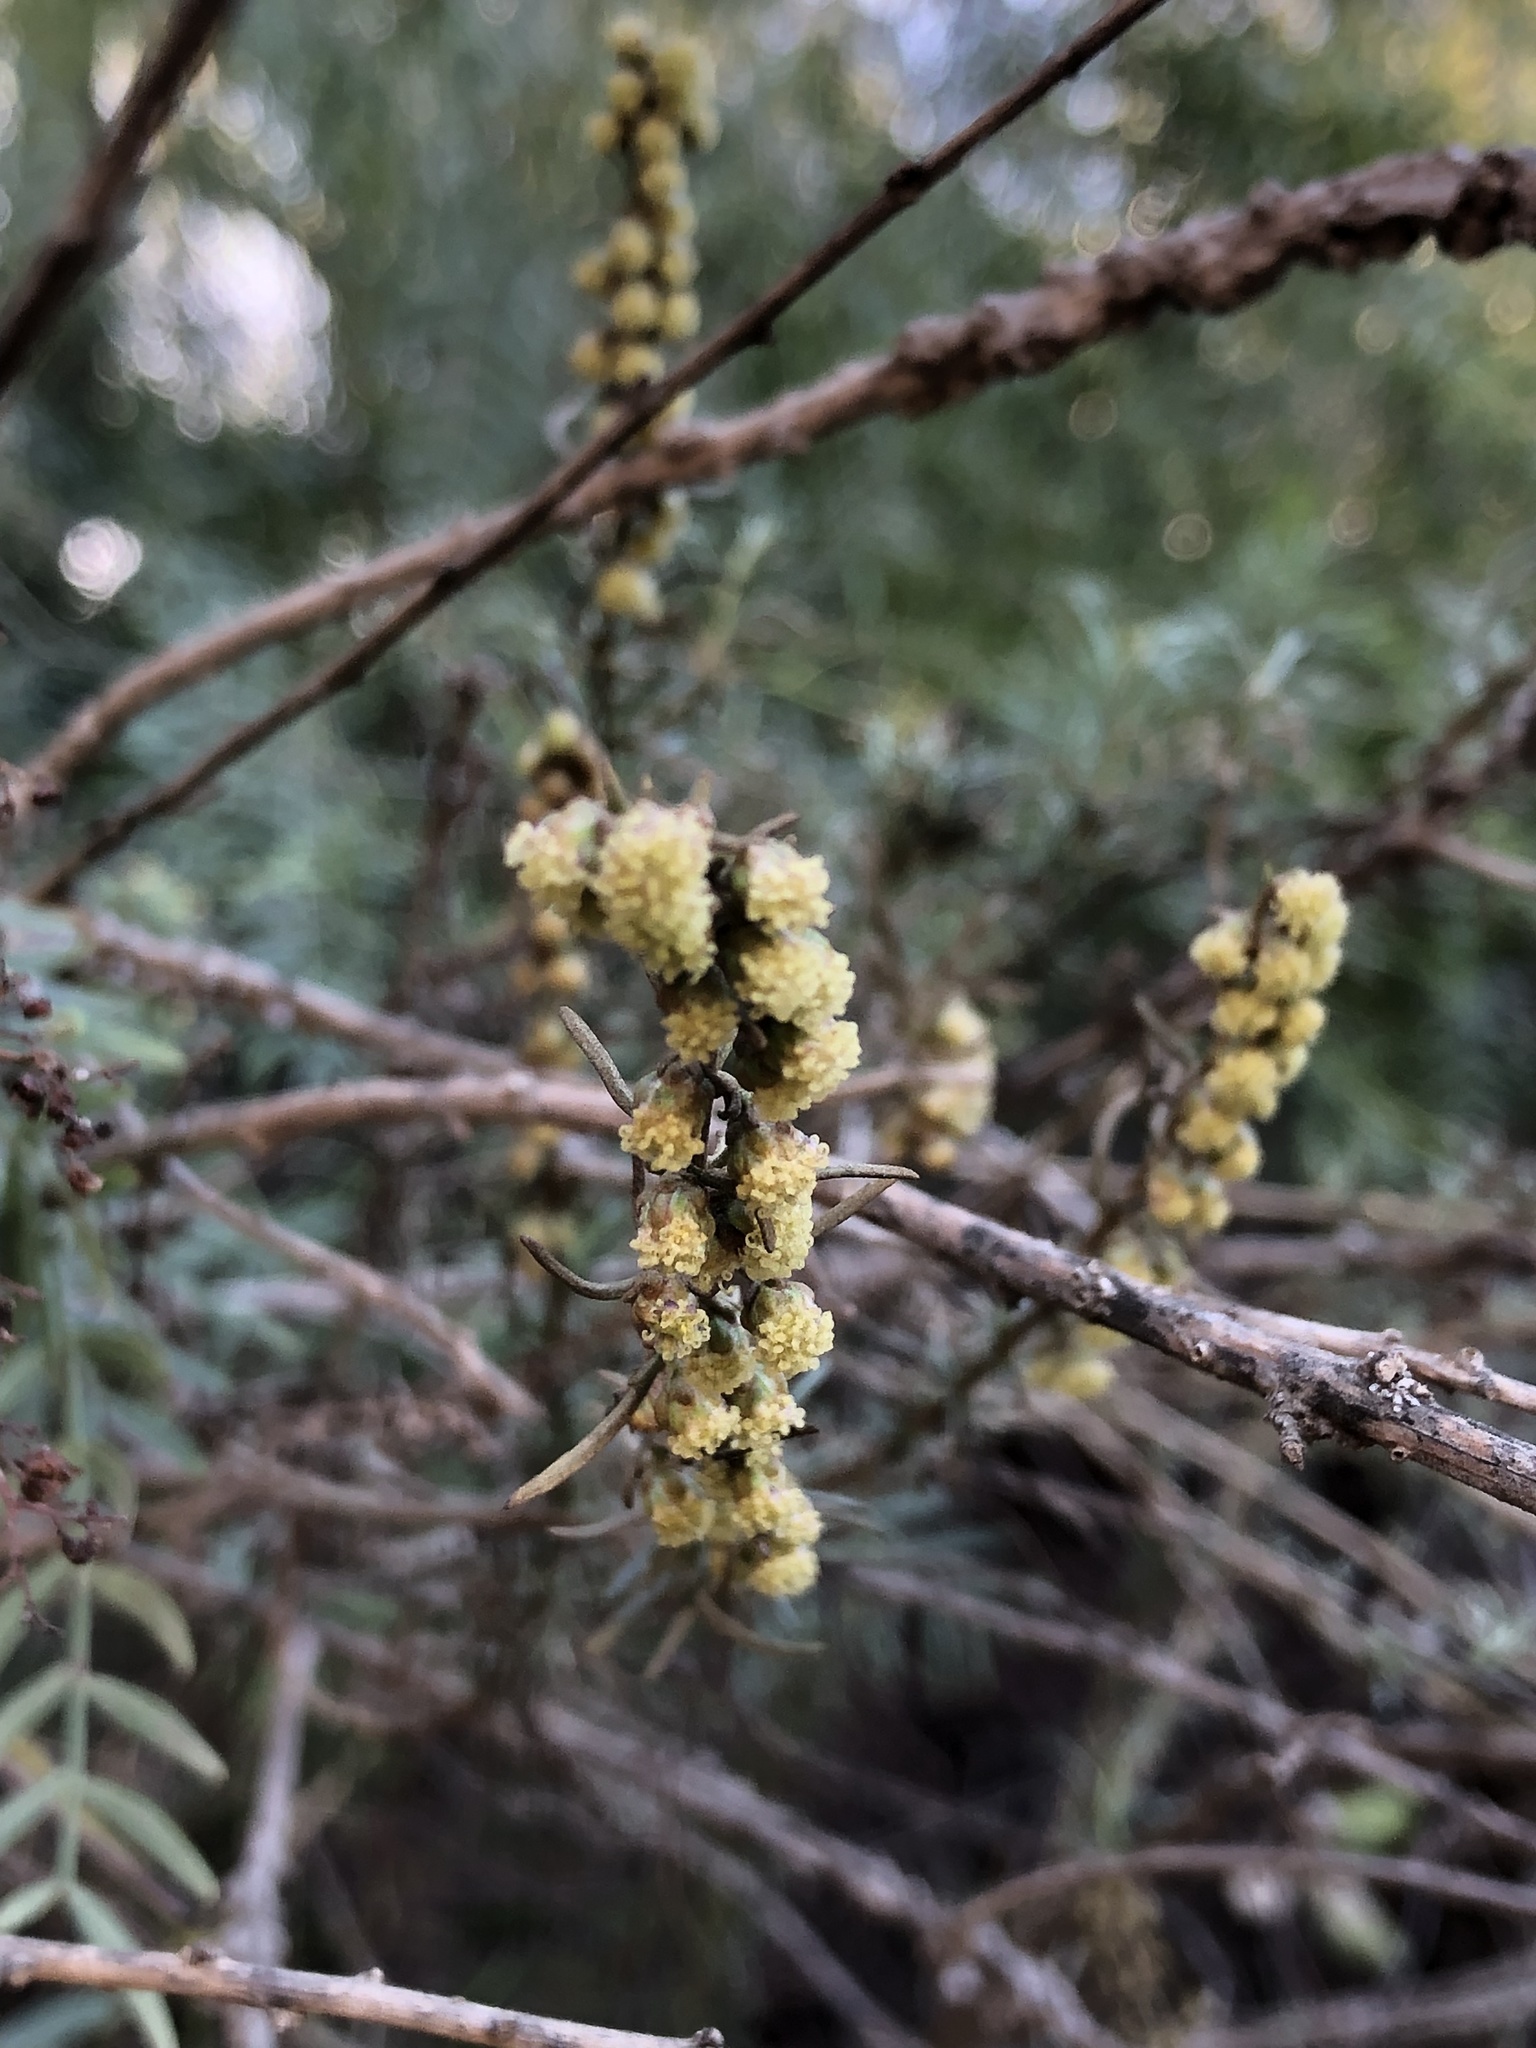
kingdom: Plantae
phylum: Tracheophyta
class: Magnoliopsida
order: Sapindales
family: Anacardiaceae
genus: Schinus
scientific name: Schinus molle
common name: Peruvian peppertree
